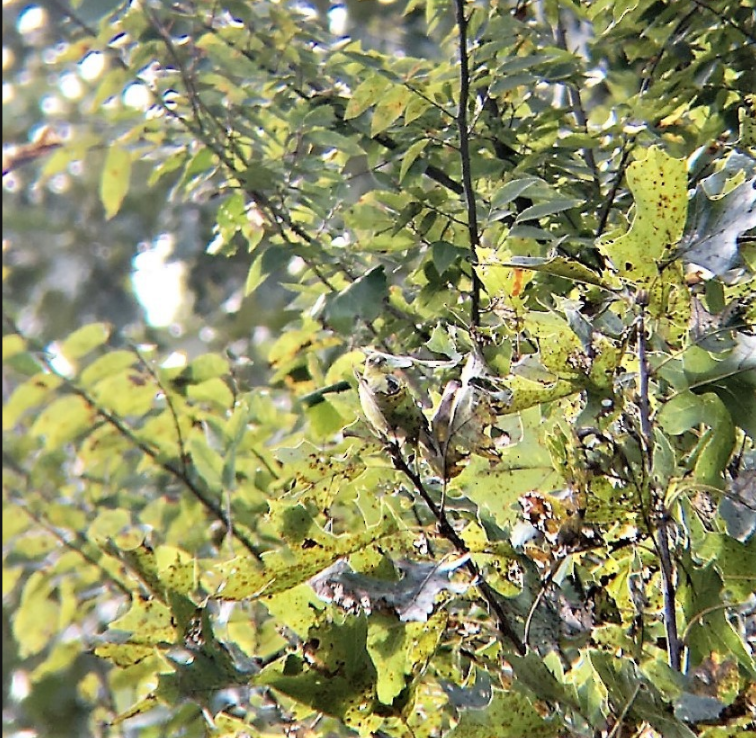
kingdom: Animalia
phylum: Chordata
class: Aves
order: Passeriformes
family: Fringillidae
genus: Spinus
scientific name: Spinus tristis
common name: American goldfinch
